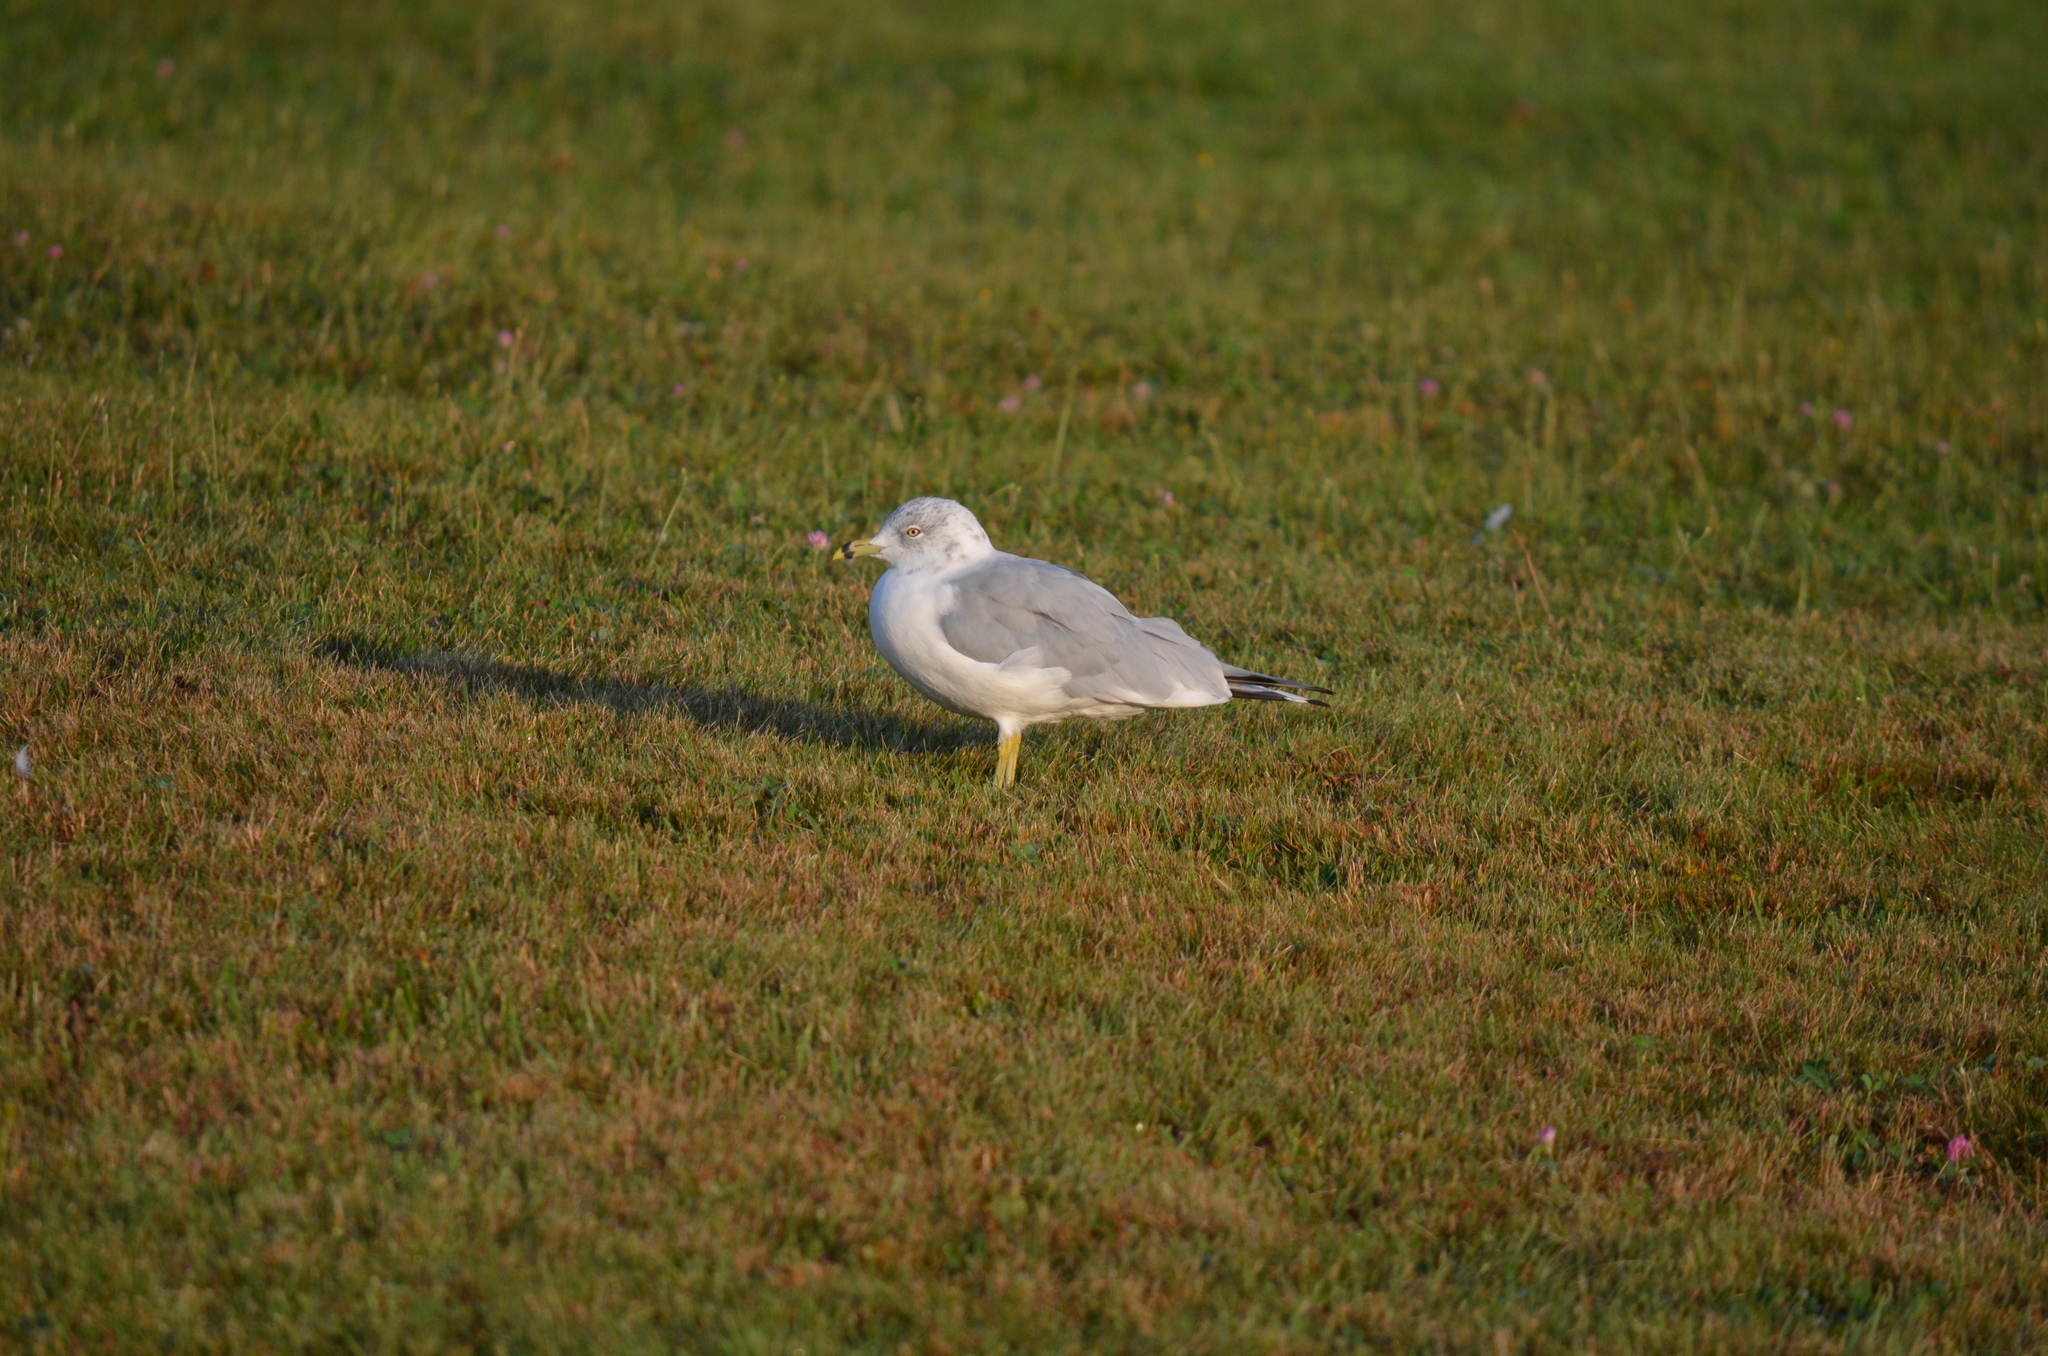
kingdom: Animalia
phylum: Chordata
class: Aves
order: Charadriiformes
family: Laridae
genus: Larus
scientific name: Larus delawarensis
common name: Ring-billed gull
